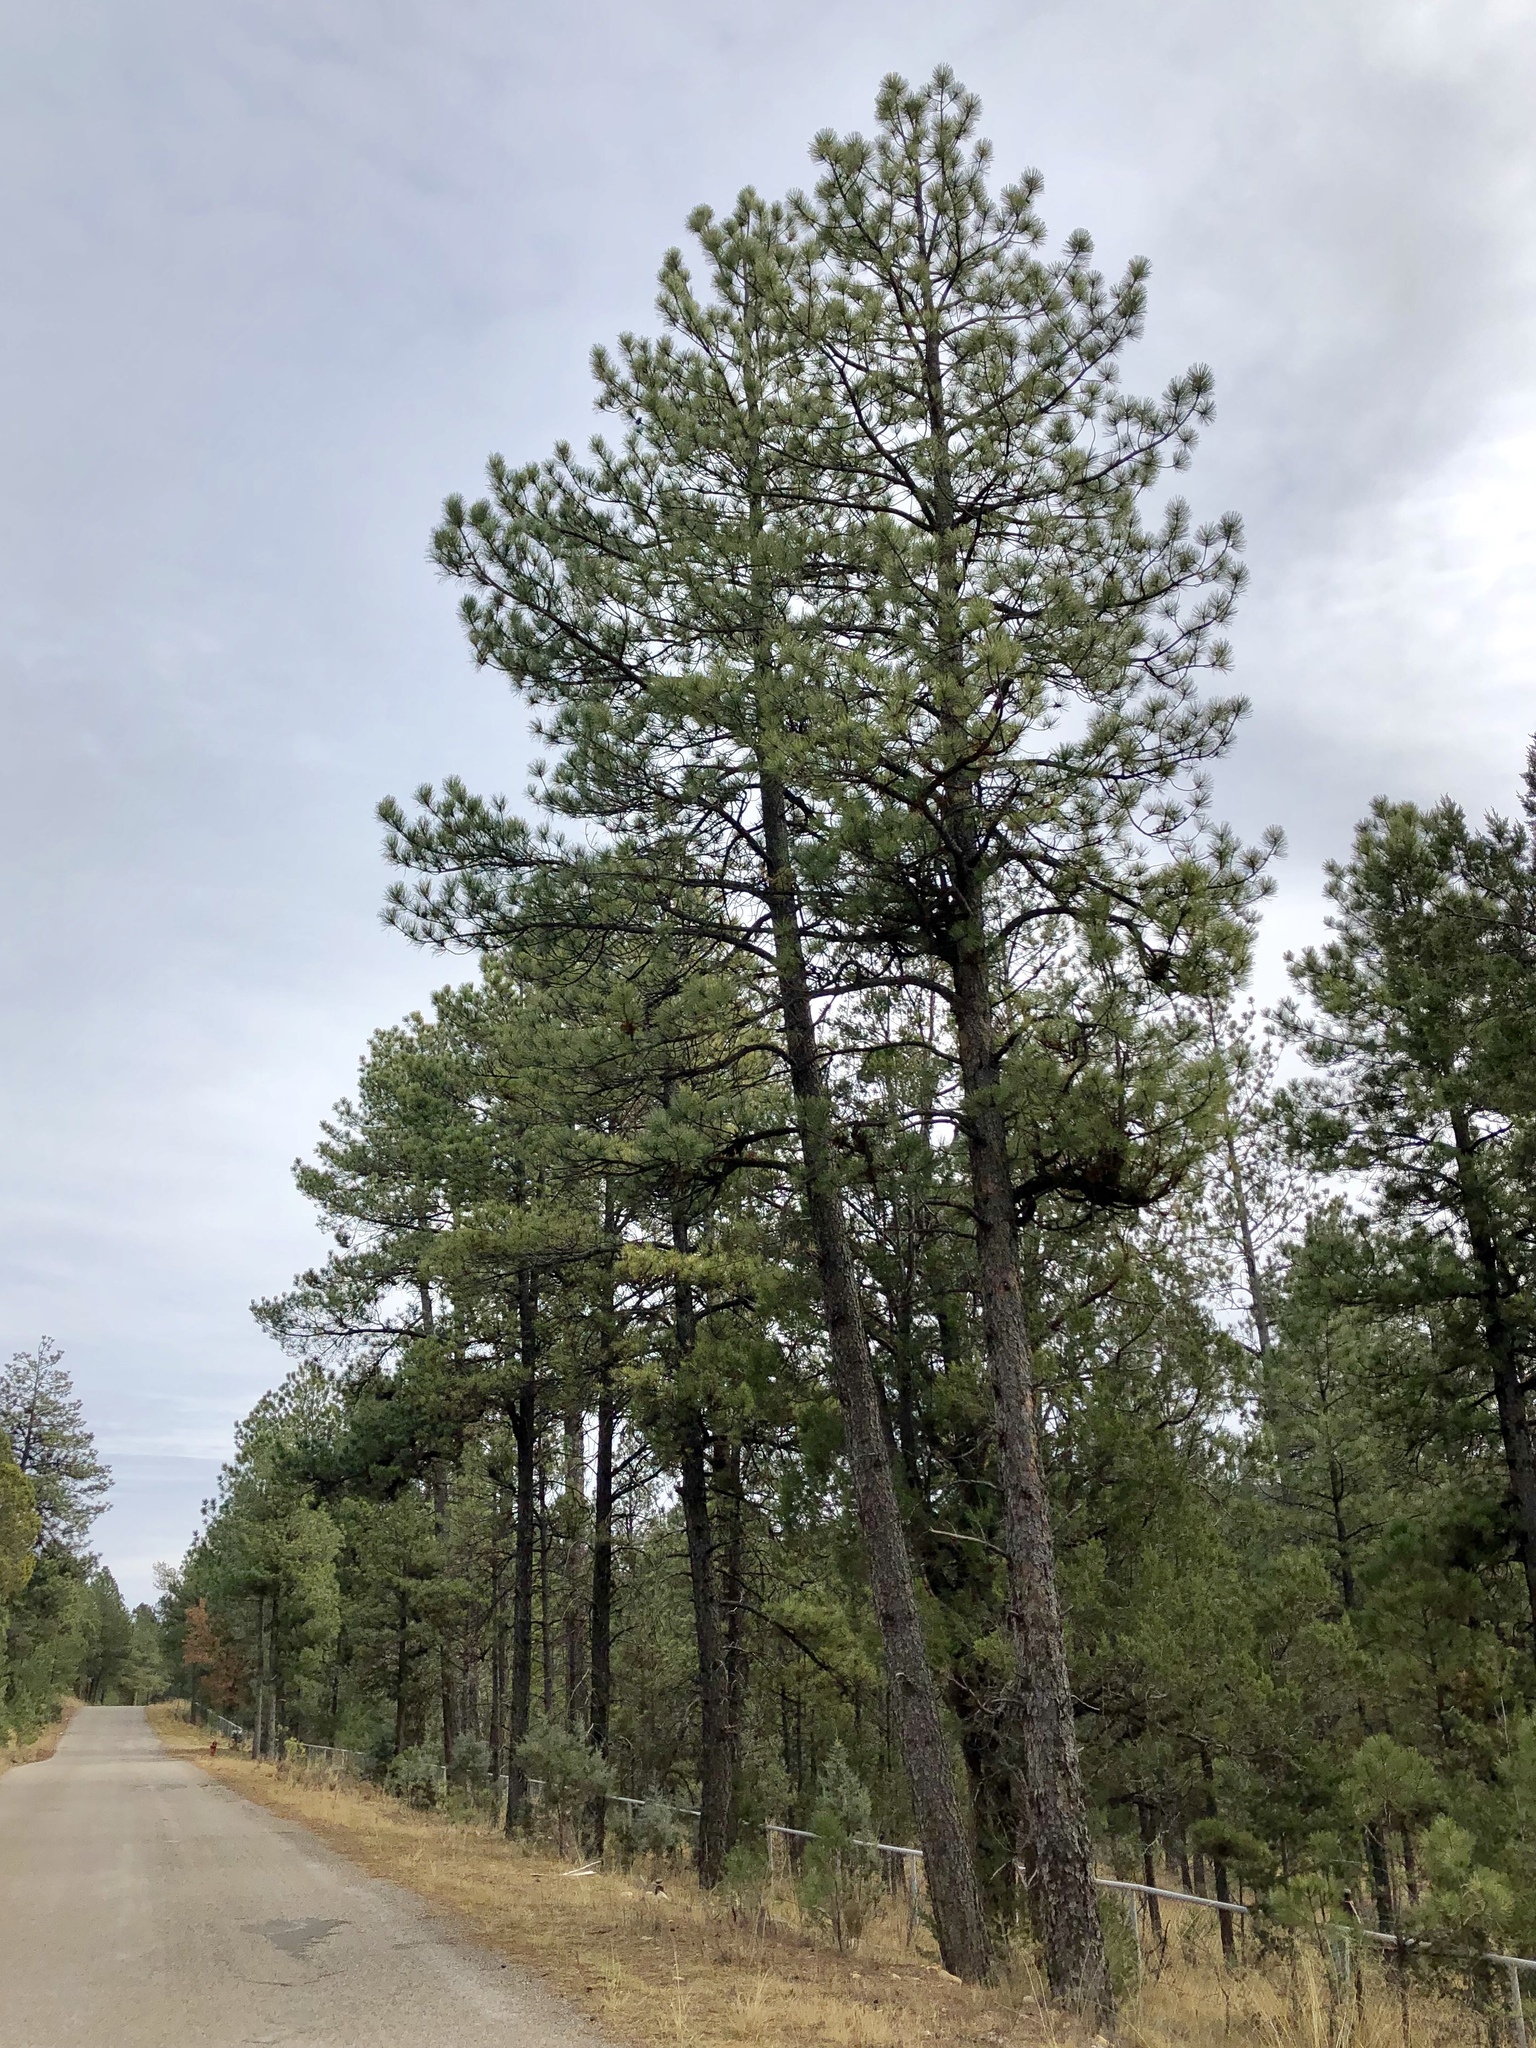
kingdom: Plantae
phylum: Tracheophyta
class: Pinopsida
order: Pinales
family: Pinaceae
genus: Pinus
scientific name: Pinus ponderosa
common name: Western yellow-pine
